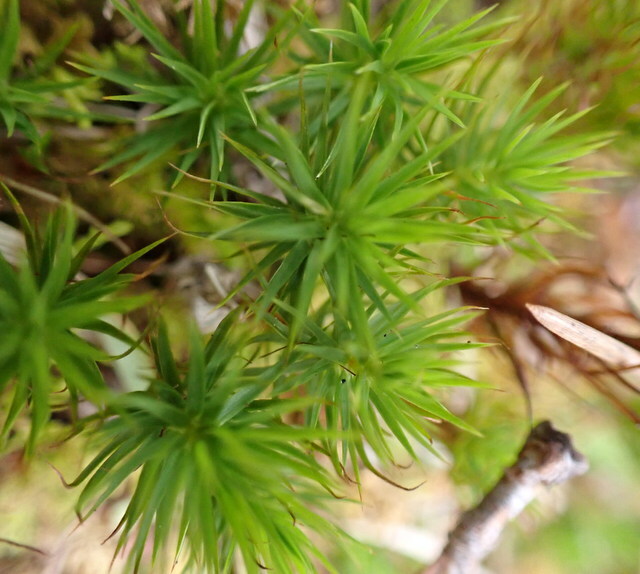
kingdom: Plantae
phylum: Bryophyta
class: Polytrichopsida
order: Polytrichales
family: Polytrichaceae
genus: Polytrichum
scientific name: Polytrichum commune
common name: Common haircap
